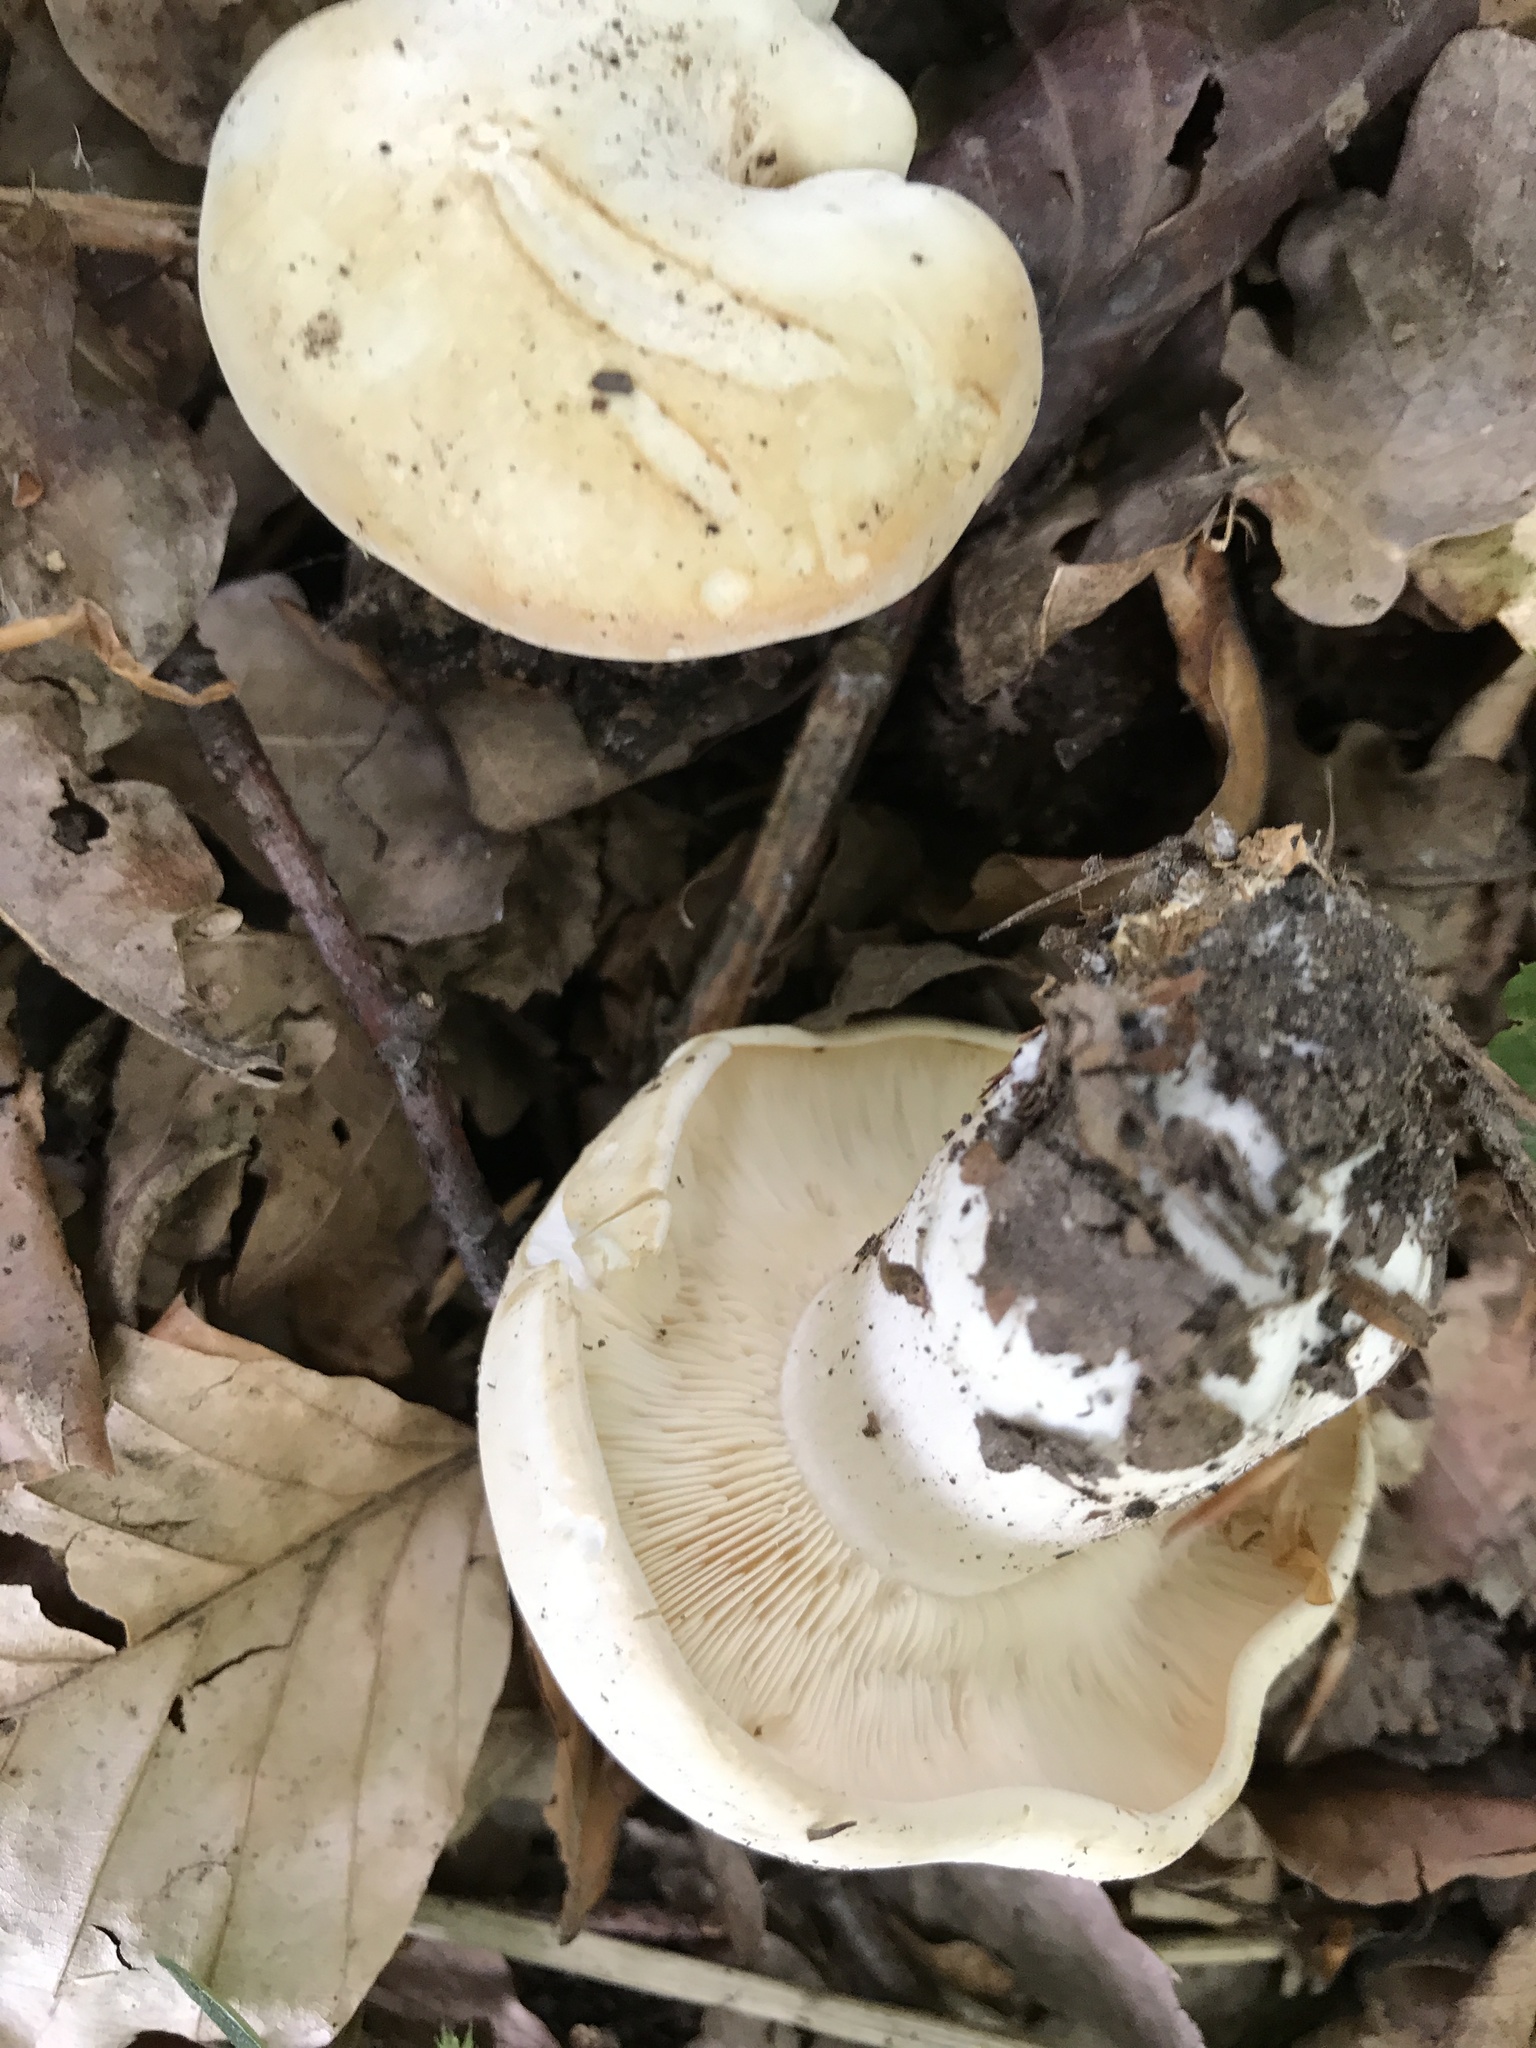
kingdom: Fungi
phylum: Basidiomycota
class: Agaricomycetes
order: Agaricales
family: Lyophyllaceae
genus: Calocybe
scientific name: Calocybe gambosa
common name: St. george's mushroom
